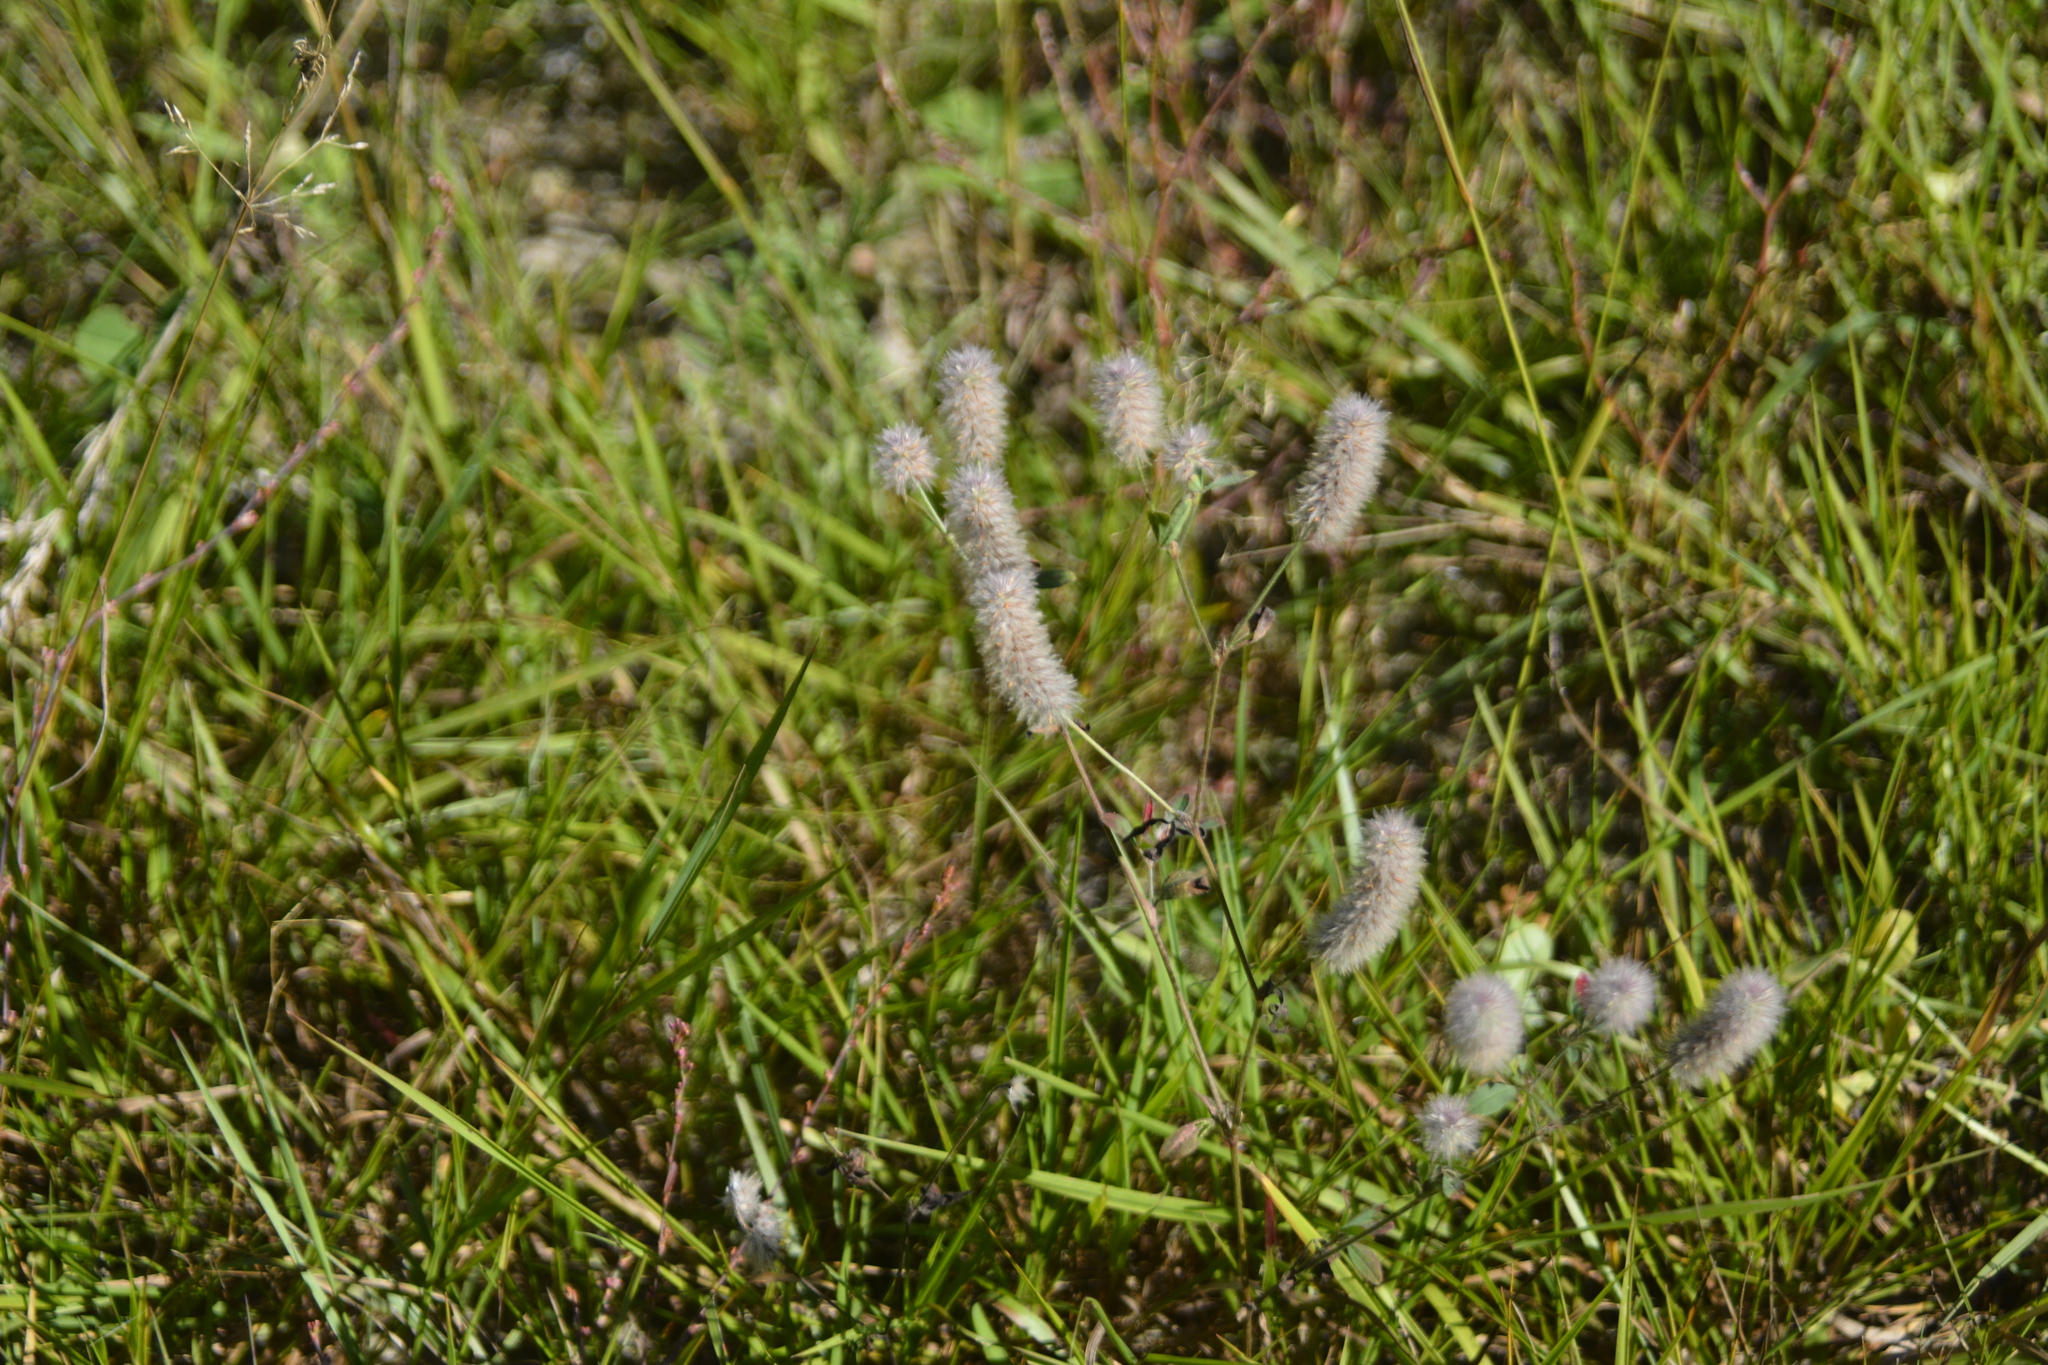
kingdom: Plantae
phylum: Tracheophyta
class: Magnoliopsida
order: Fabales
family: Fabaceae
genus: Trifolium
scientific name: Trifolium arvense
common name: Hare's-foot clover
